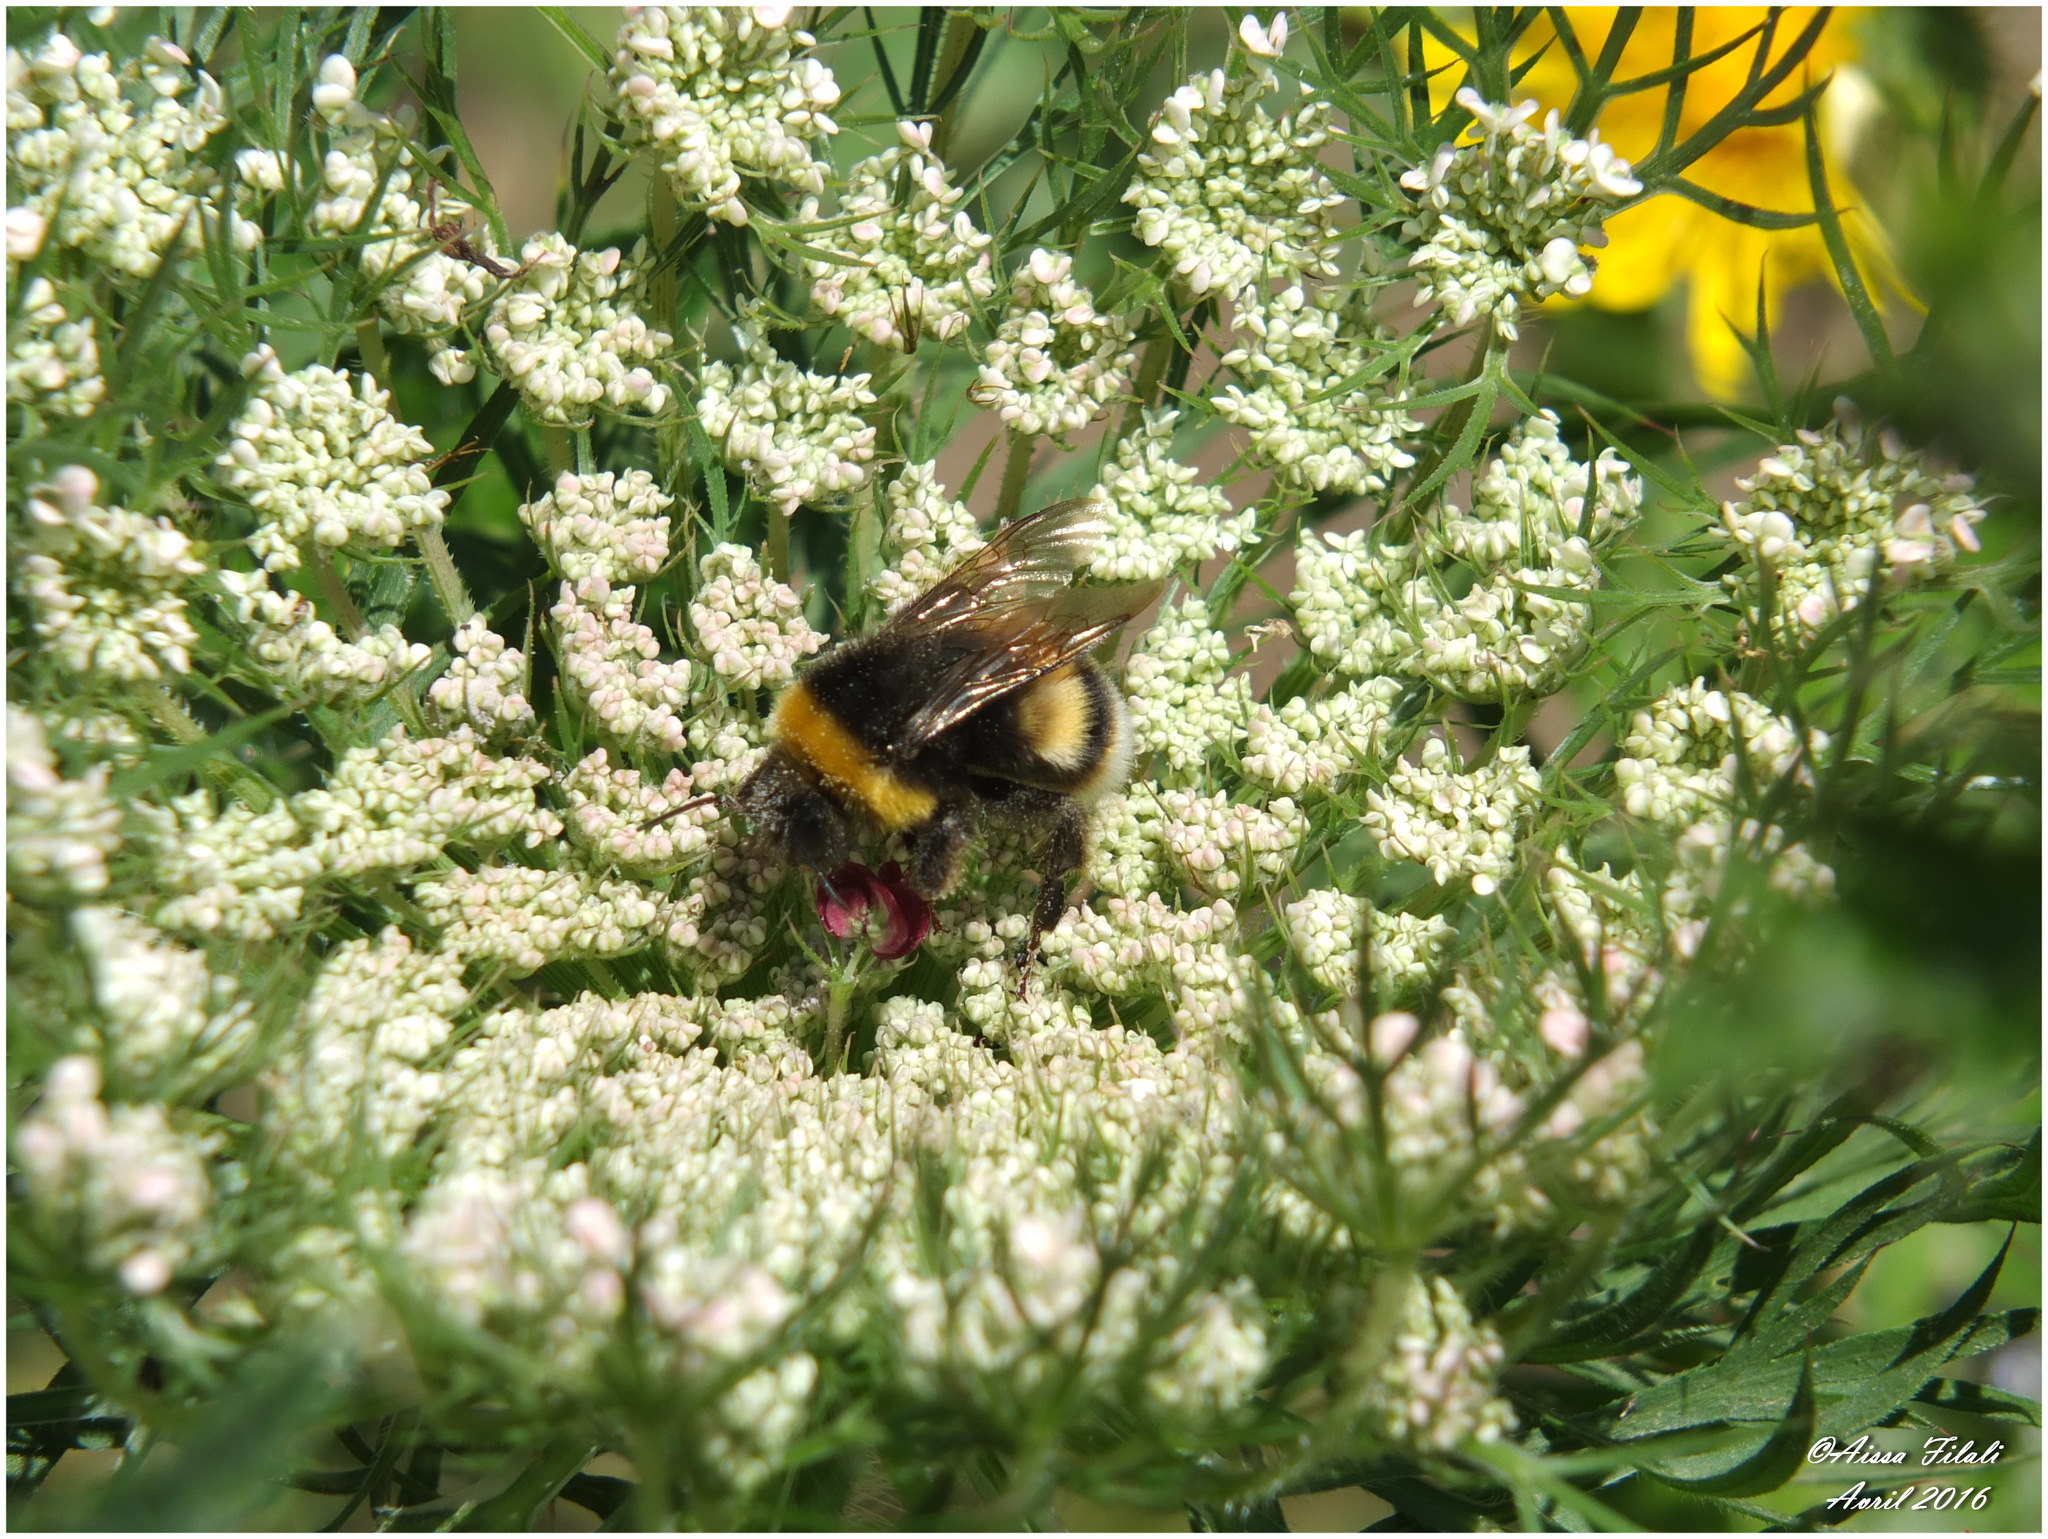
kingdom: Animalia
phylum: Arthropoda
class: Insecta
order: Hymenoptera
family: Apidae
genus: Bombus
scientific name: Bombus terrestris
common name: Buff-tailed bumblebee
